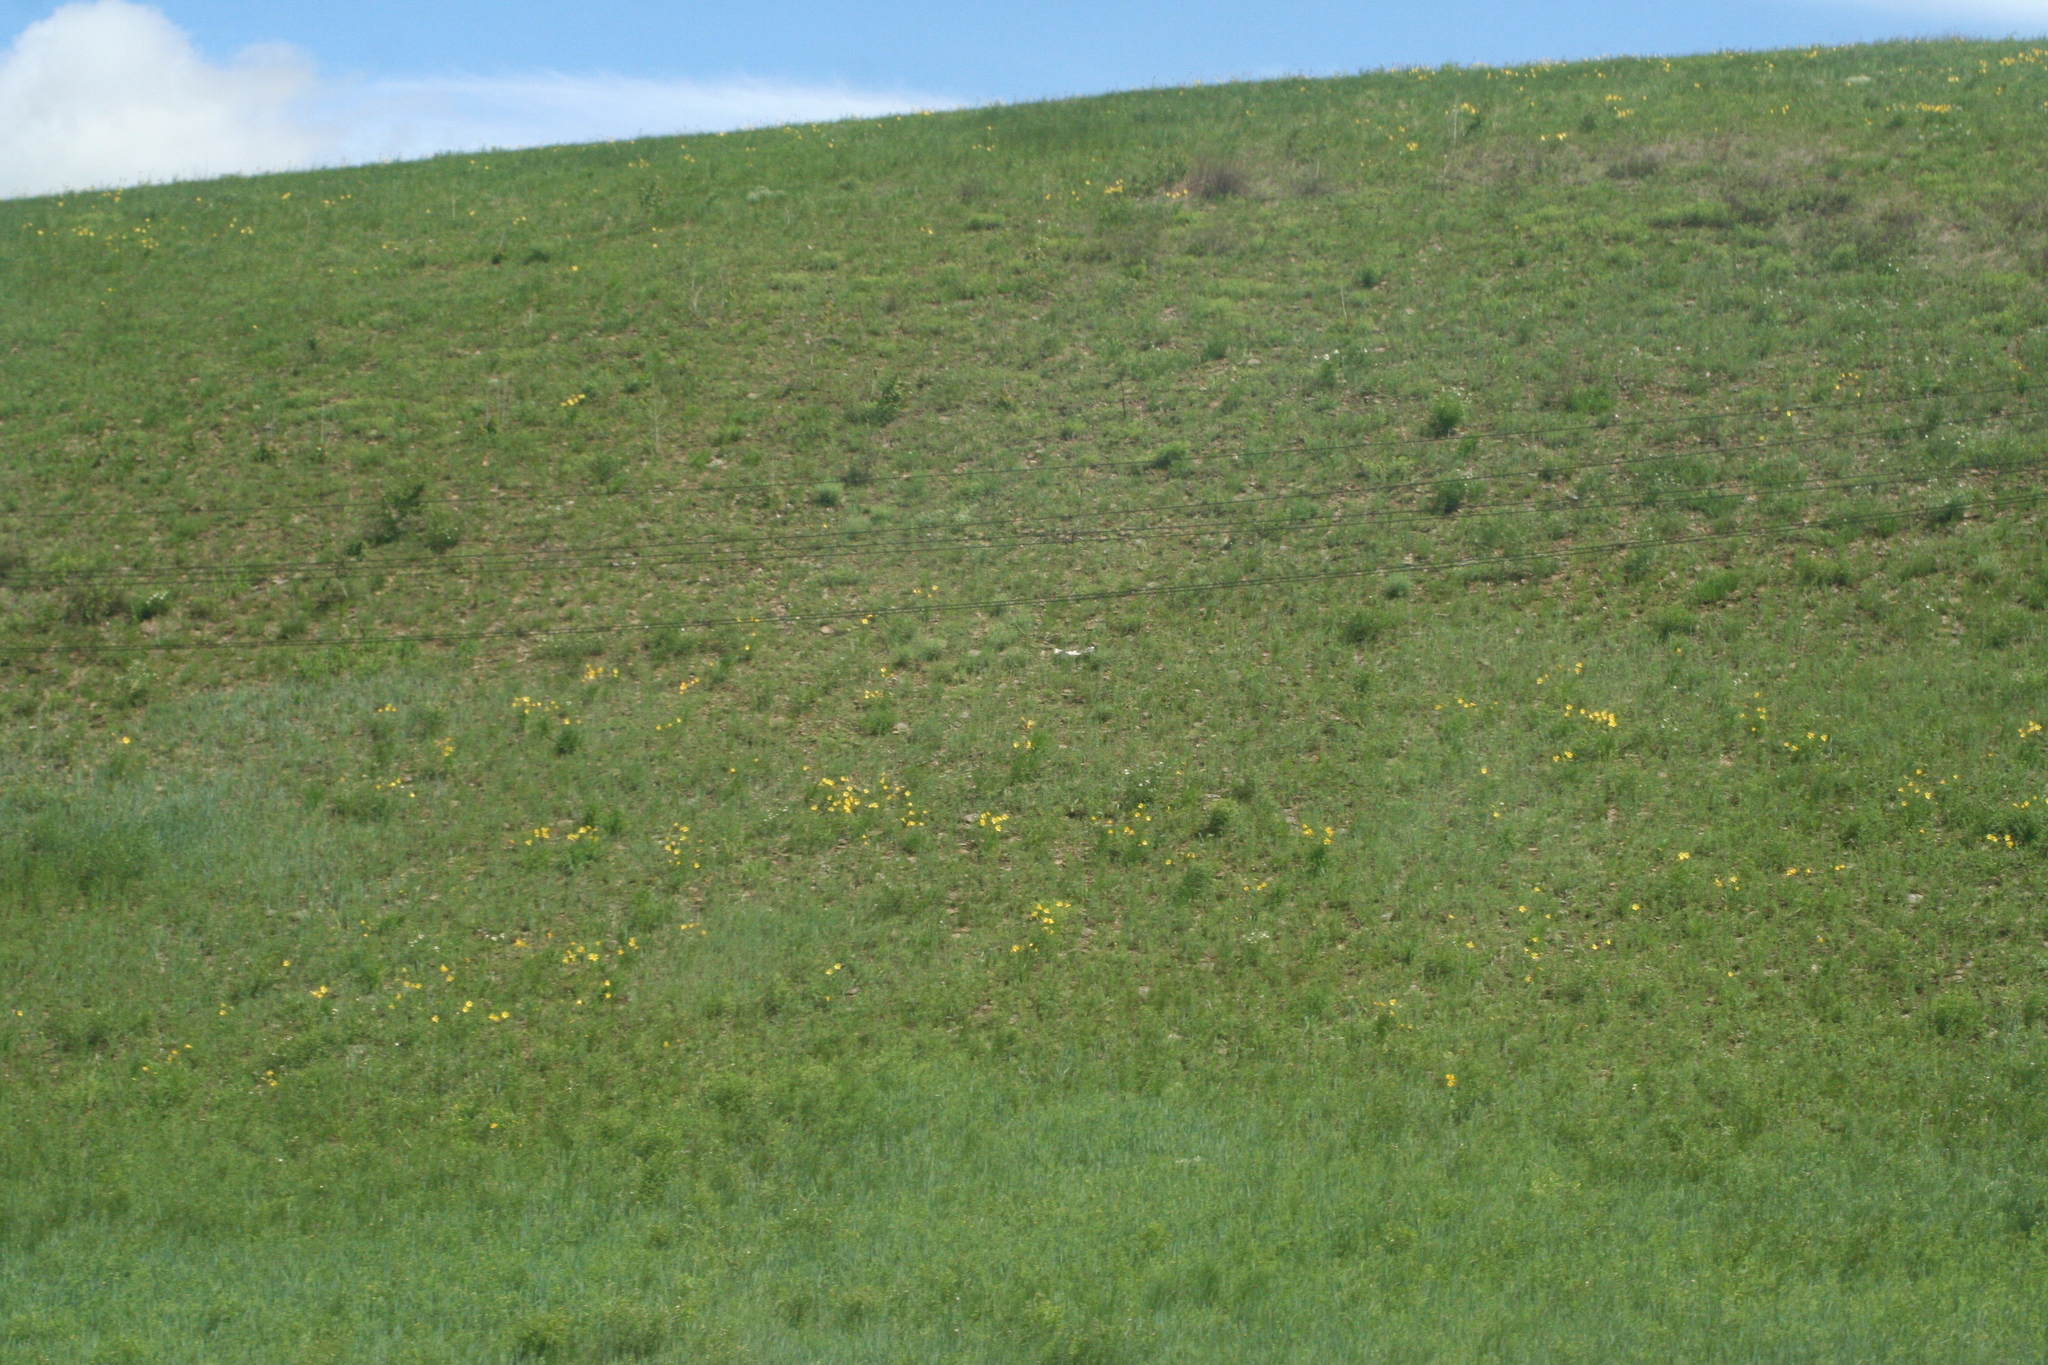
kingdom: Plantae
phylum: Tracheophyta
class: Liliopsida
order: Asparagales
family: Asphodelaceae
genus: Hemerocallis
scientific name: Hemerocallis minor
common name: Small daylily
